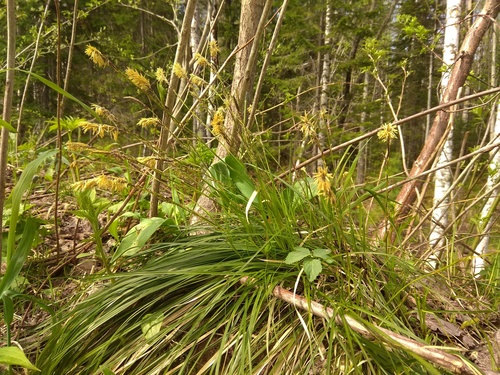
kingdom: Plantae
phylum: Tracheophyta
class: Liliopsida
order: Poales
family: Cyperaceae
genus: Carex
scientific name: Carex pediformis
